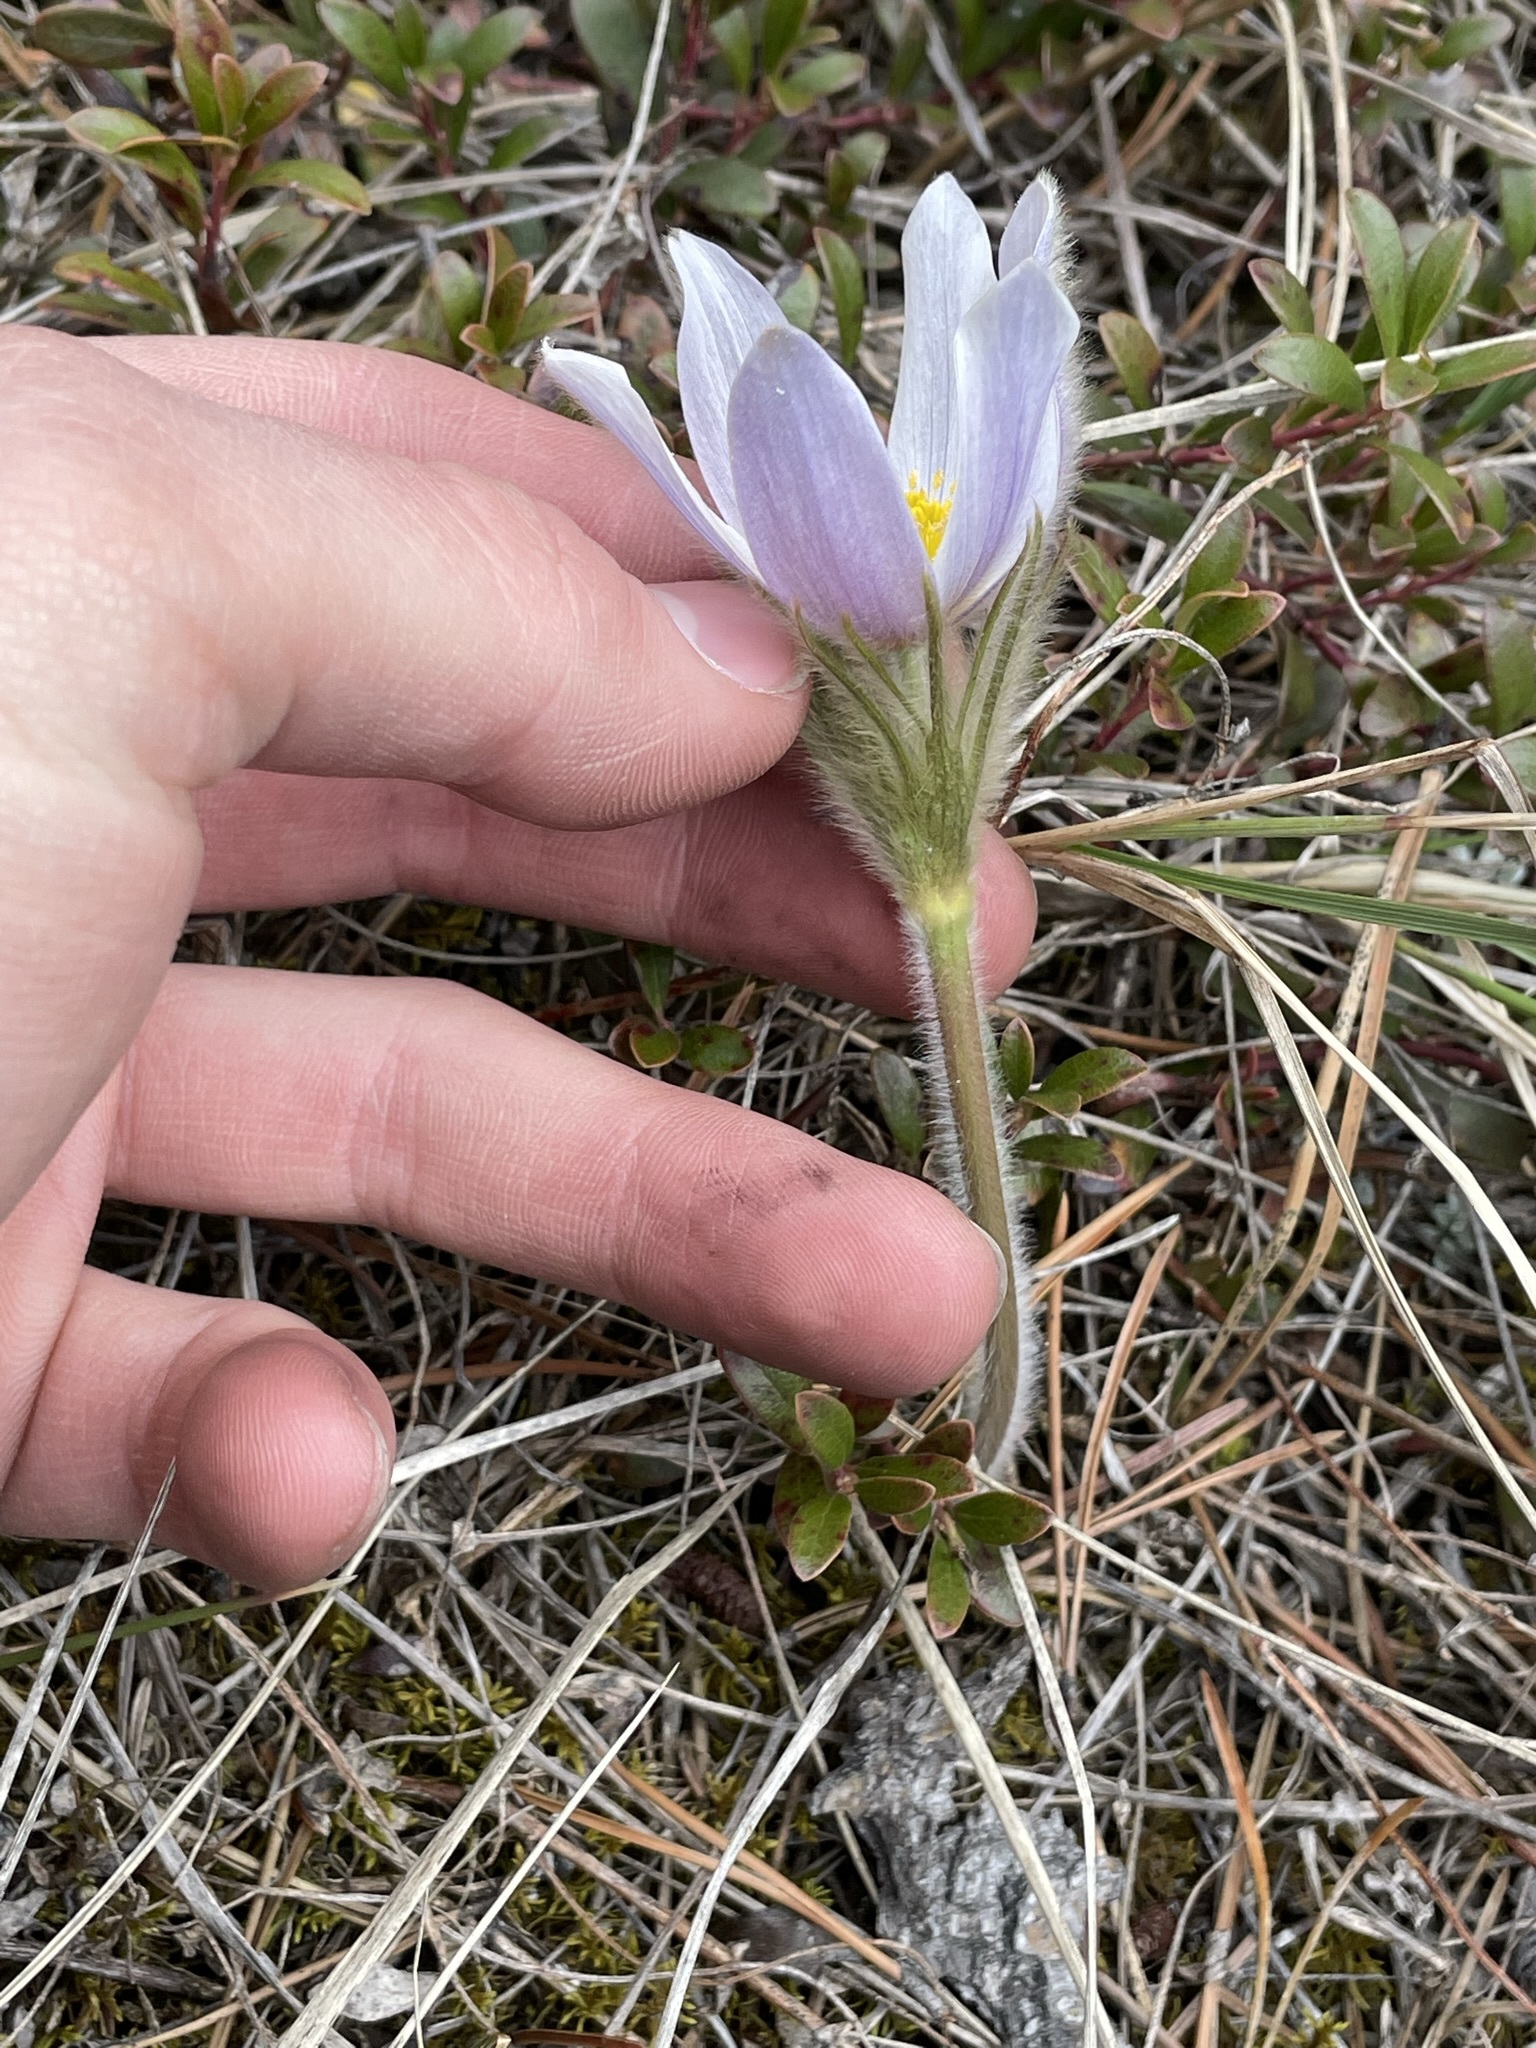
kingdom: Plantae
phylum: Tracheophyta
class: Magnoliopsida
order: Ranunculales
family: Ranunculaceae
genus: Pulsatilla
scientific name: Pulsatilla nuttalliana
